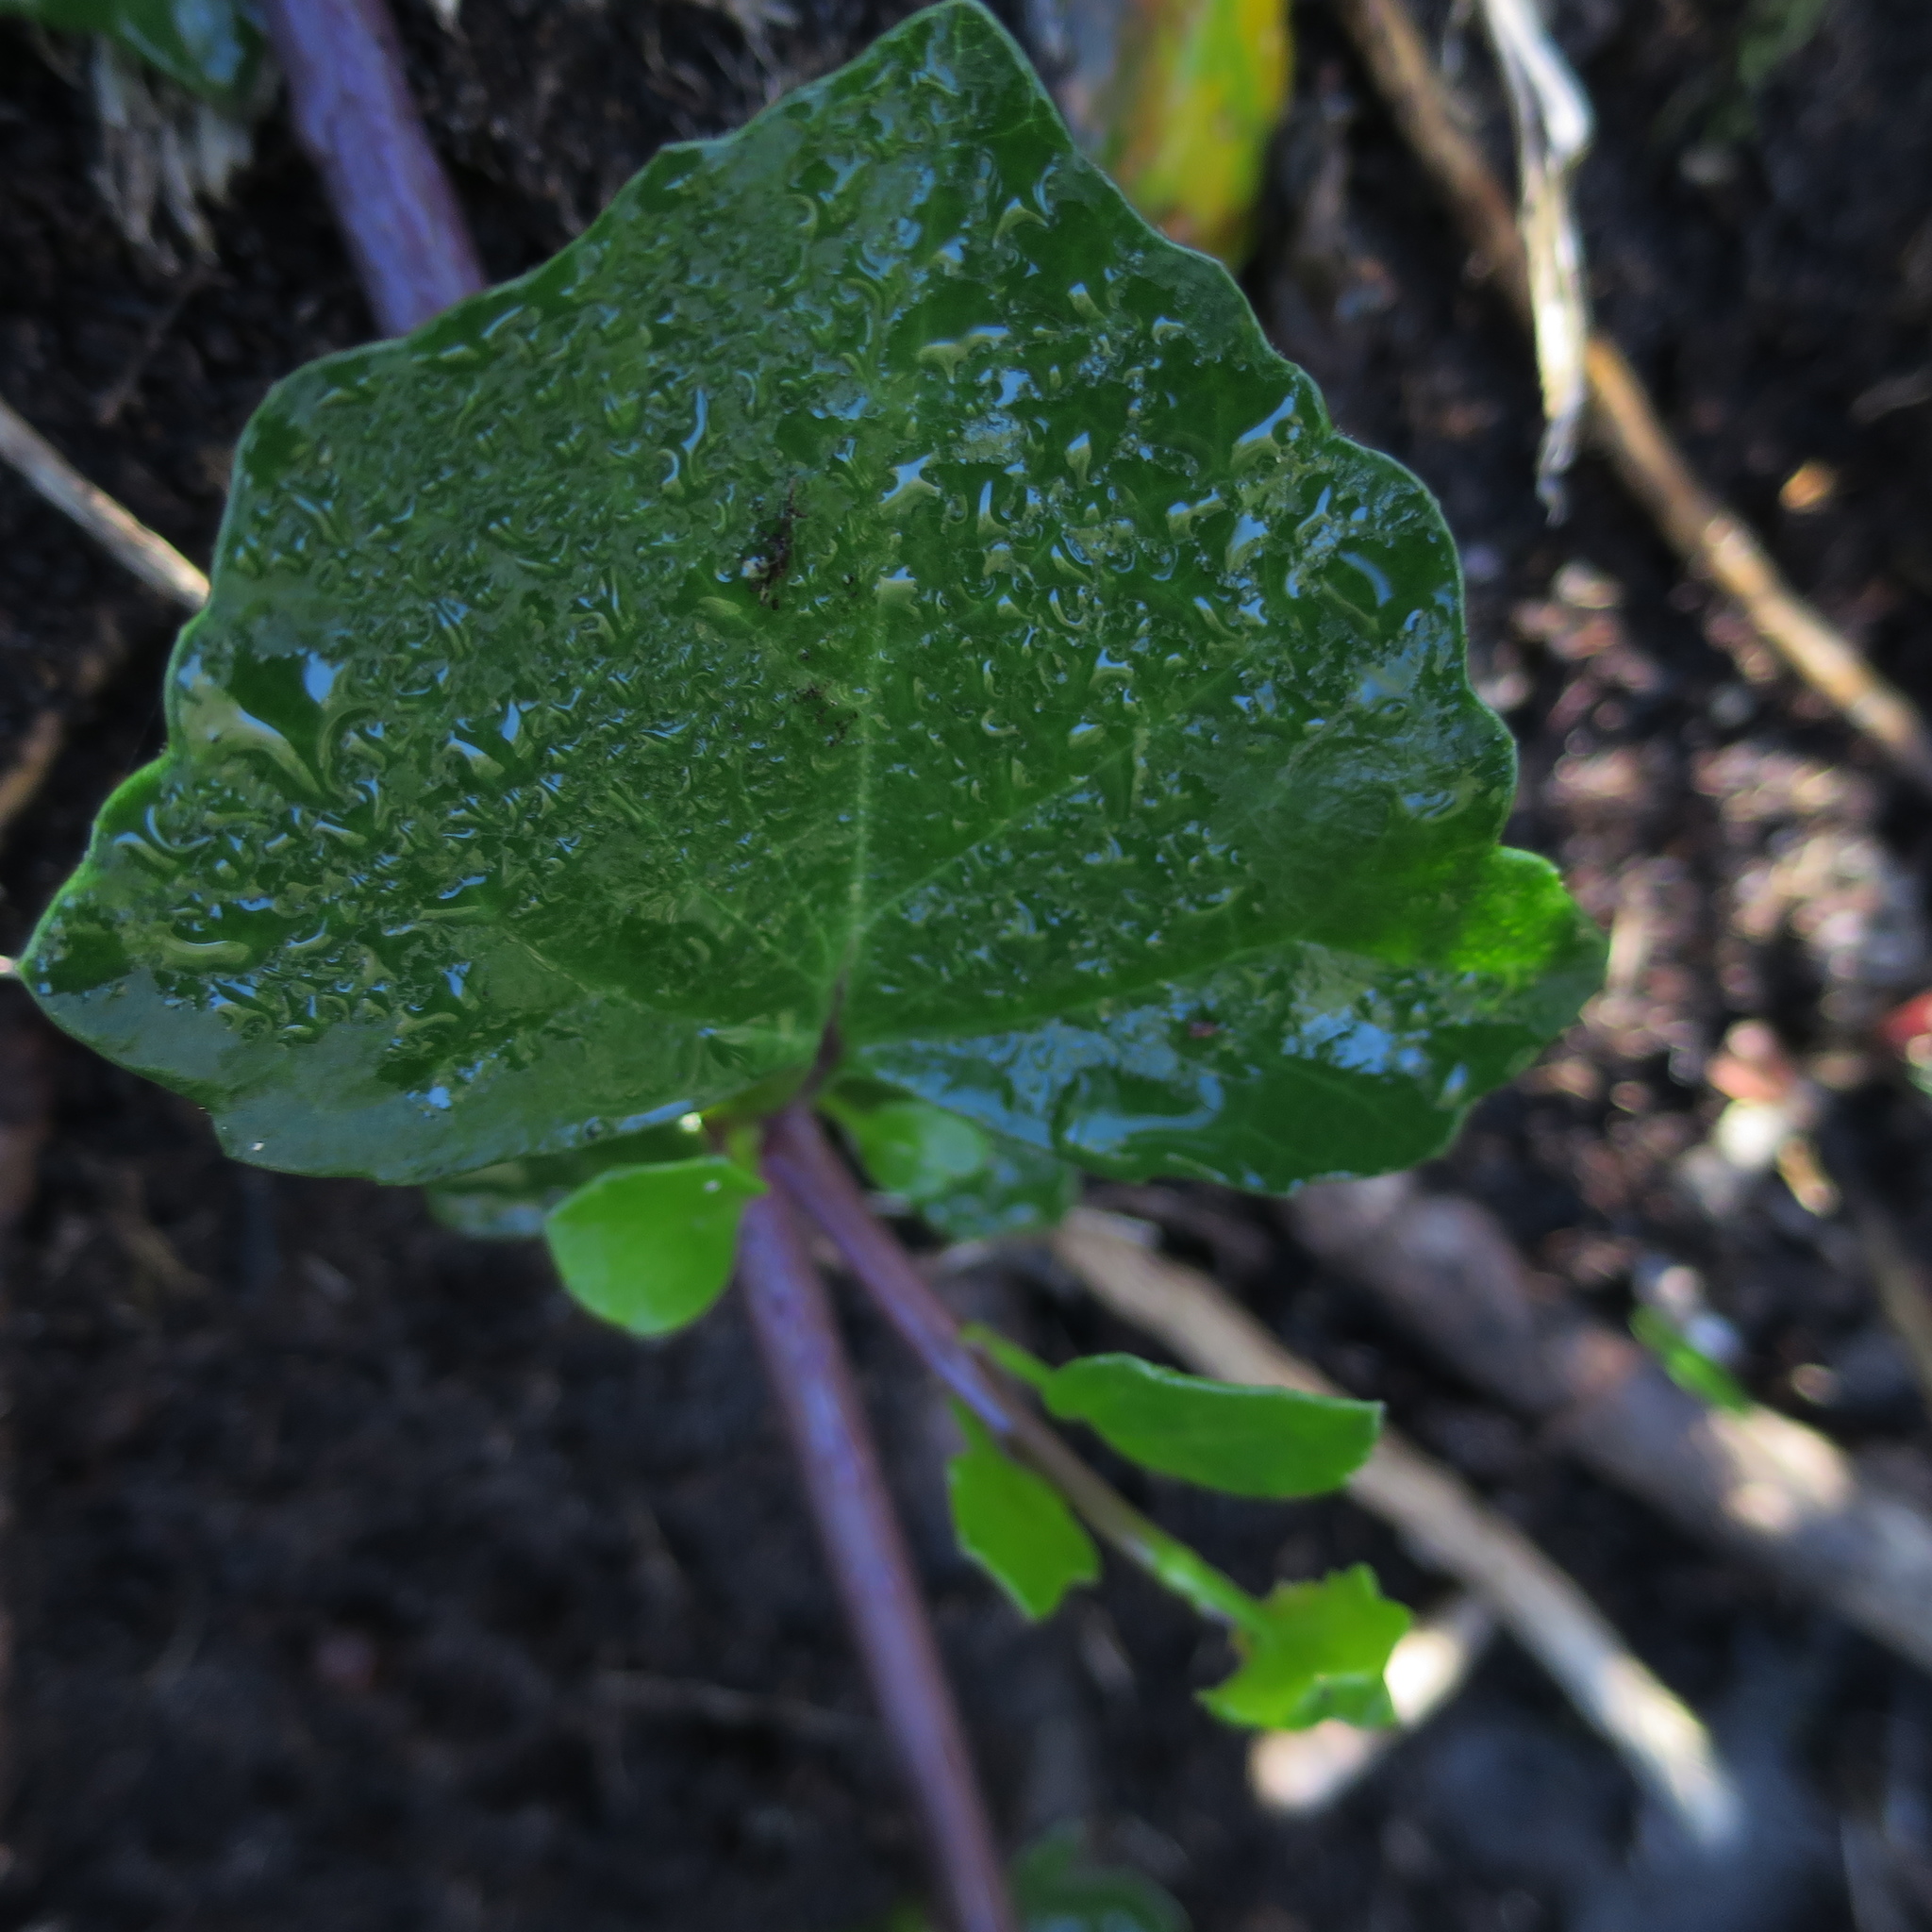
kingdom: Plantae
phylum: Tracheophyta
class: Magnoliopsida
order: Asterales
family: Asteraceae
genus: Senecio
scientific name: Senecio angulatus
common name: Climbing groundsel
